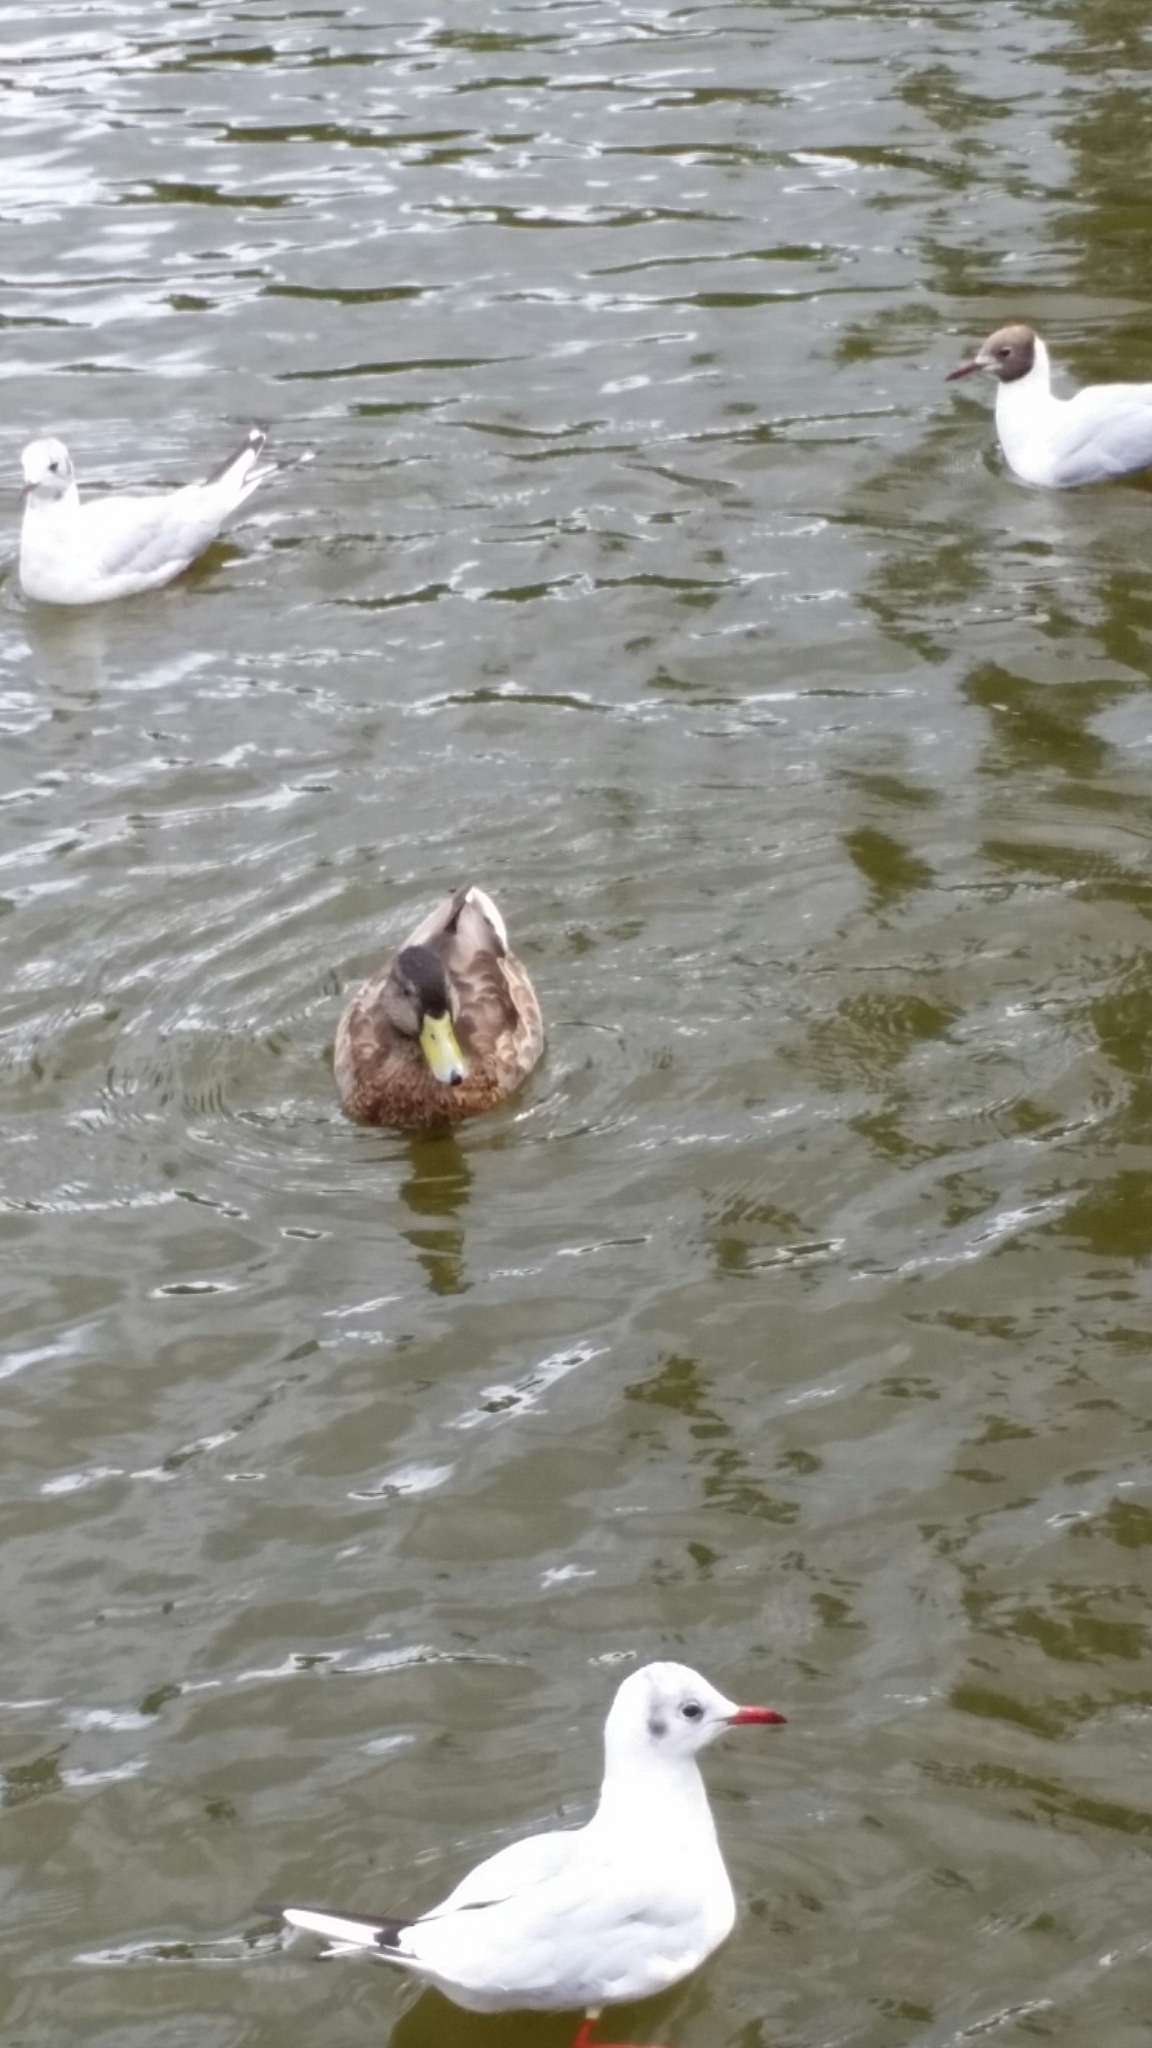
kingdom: Animalia
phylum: Chordata
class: Aves
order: Anseriformes
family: Anatidae
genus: Anas
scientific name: Anas platyrhynchos
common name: Mallard
